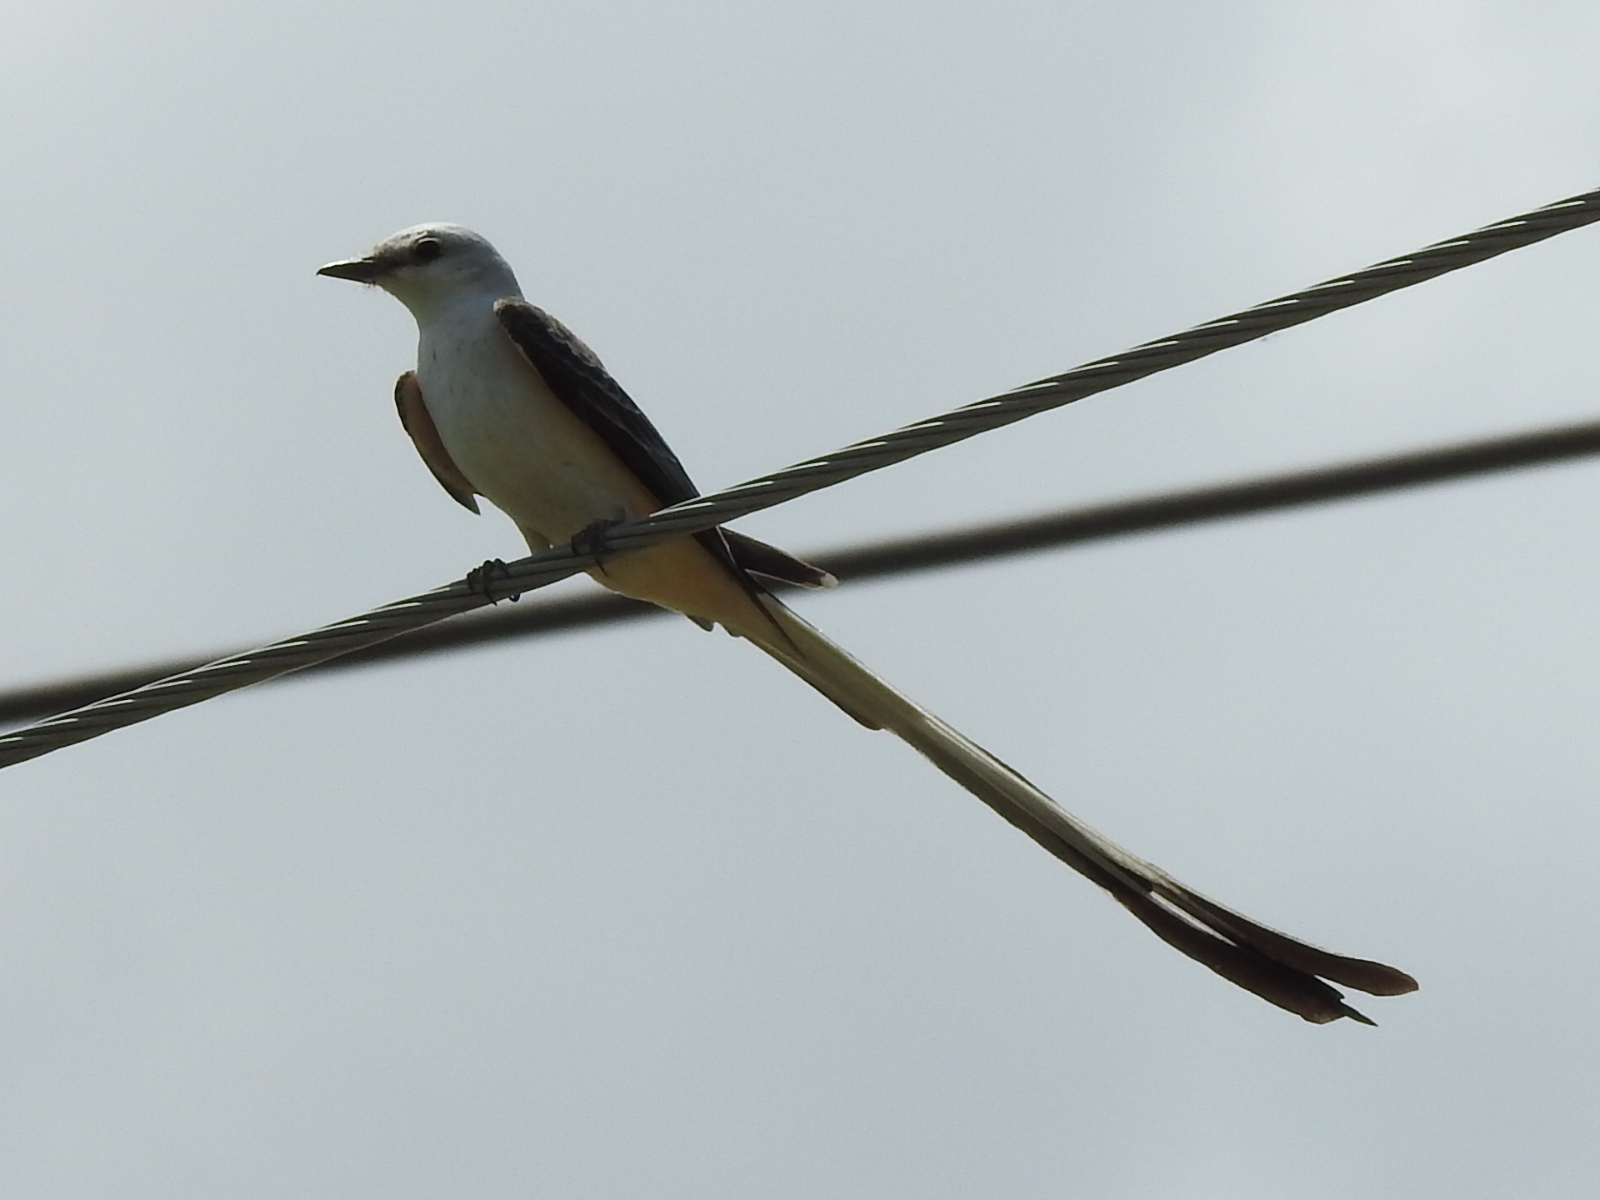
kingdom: Animalia
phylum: Chordata
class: Aves
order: Passeriformes
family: Tyrannidae
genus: Tyrannus
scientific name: Tyrannus forficatus
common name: Scissor-tailed flycatcher
